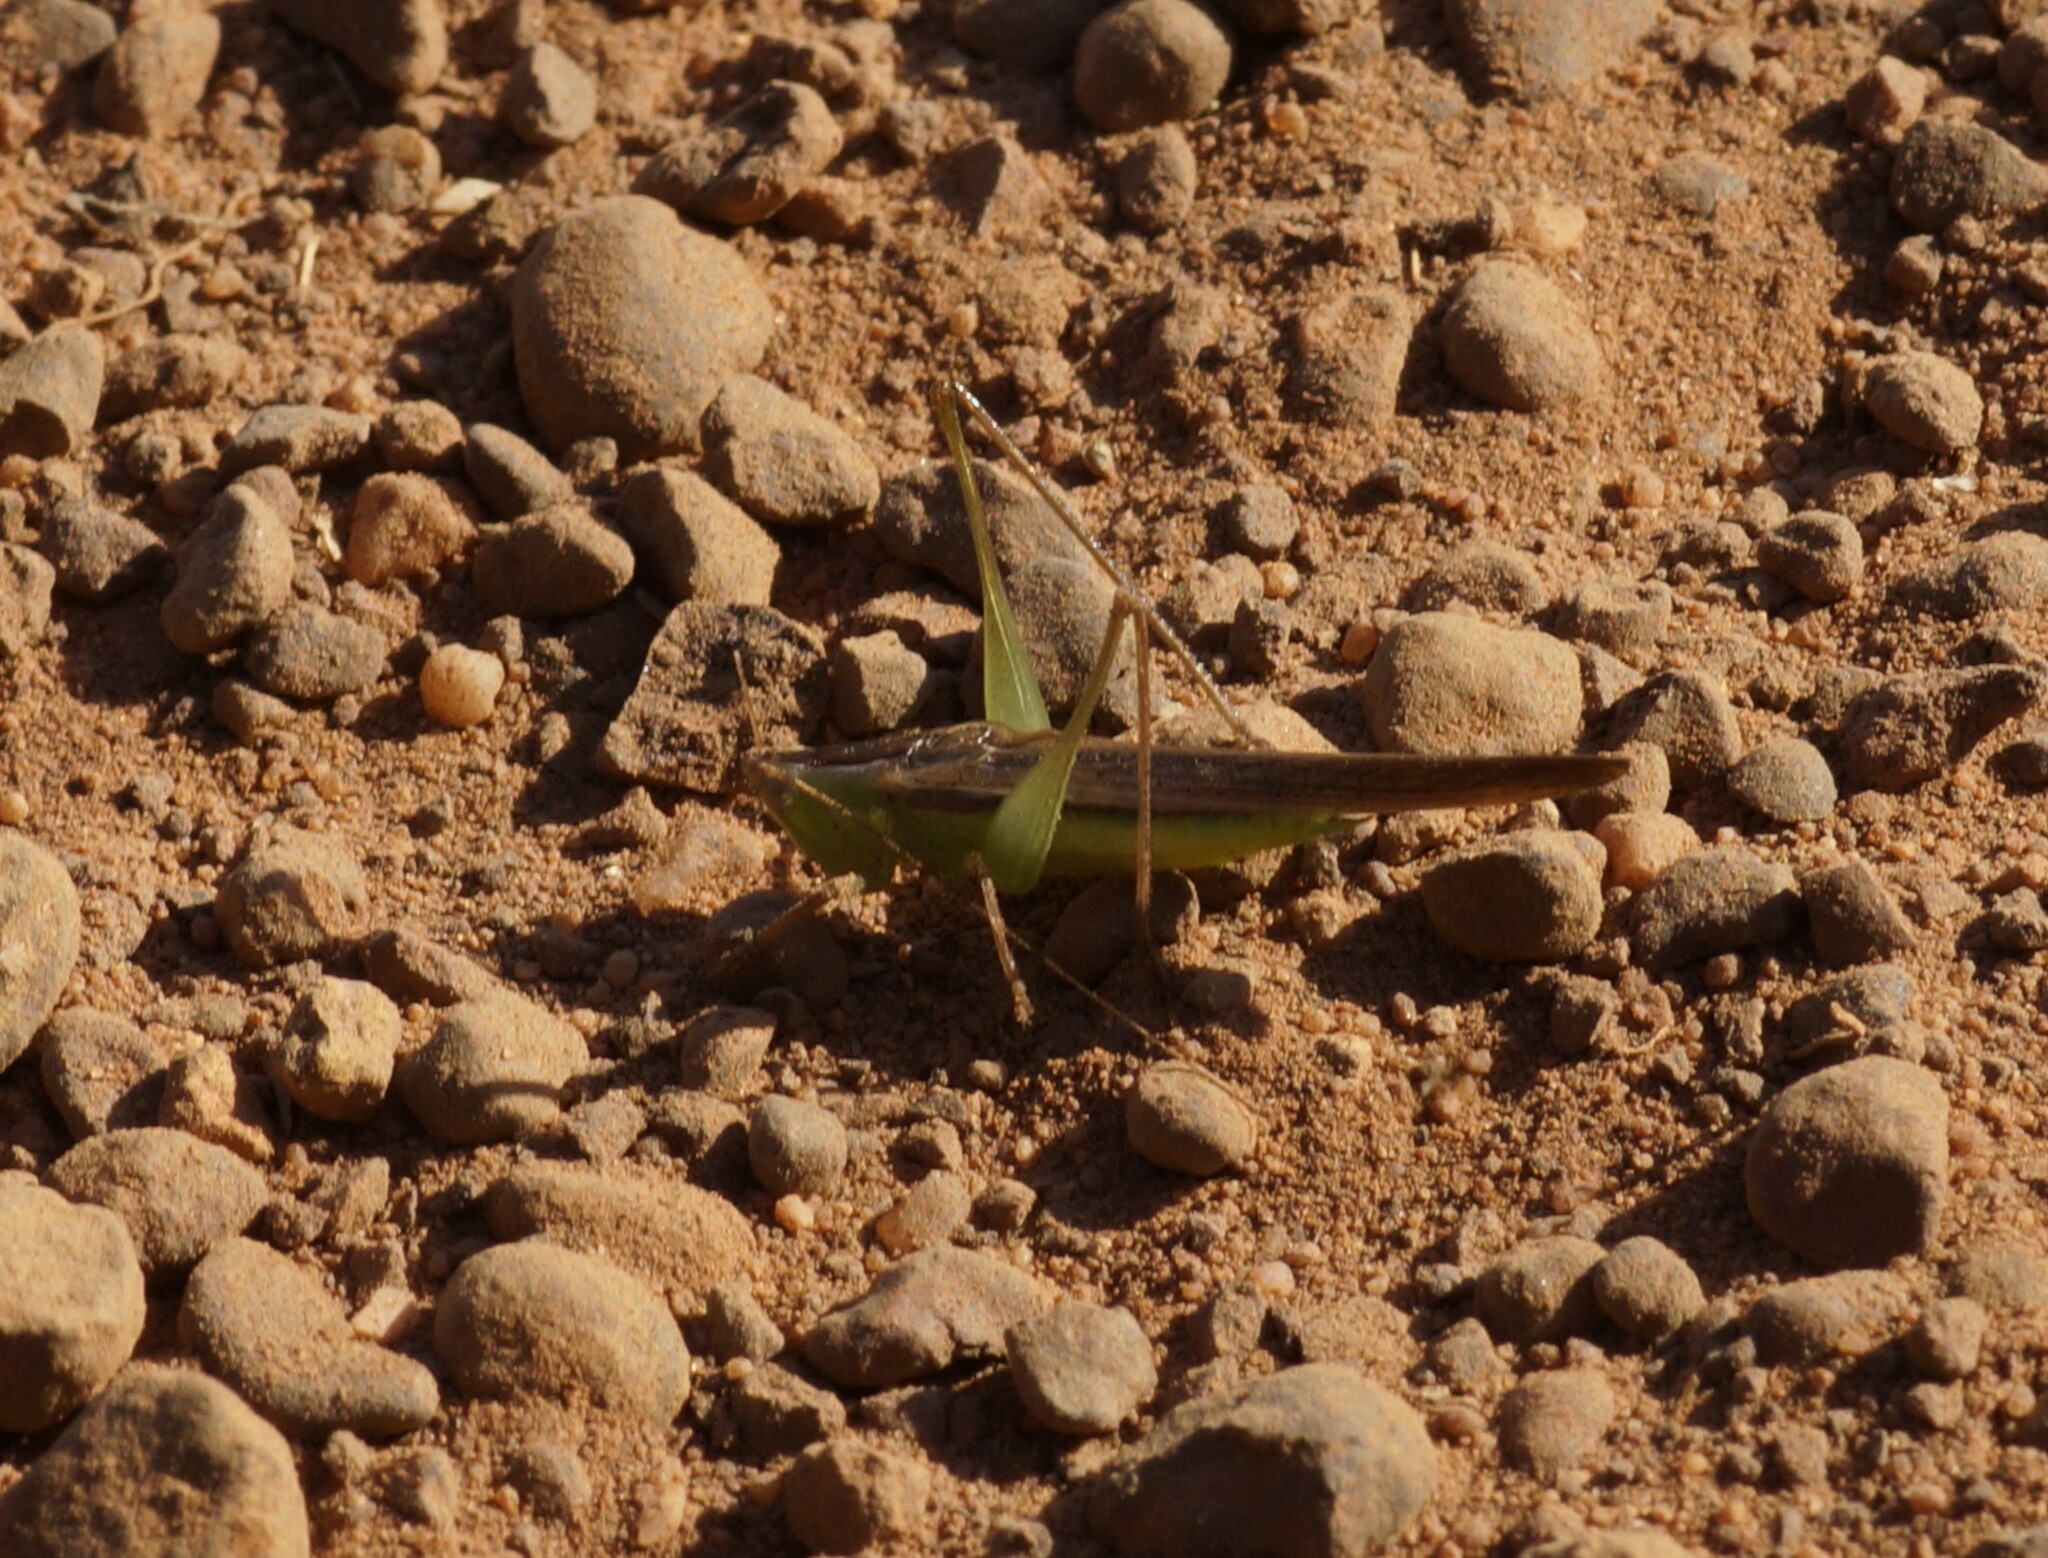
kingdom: Animalia
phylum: Arthropoda
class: Insecta
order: Orthoptera
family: Tettigoniidae
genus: Conocephalus
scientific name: Conocephalus upoluensis
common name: Upolu meadow katydid
